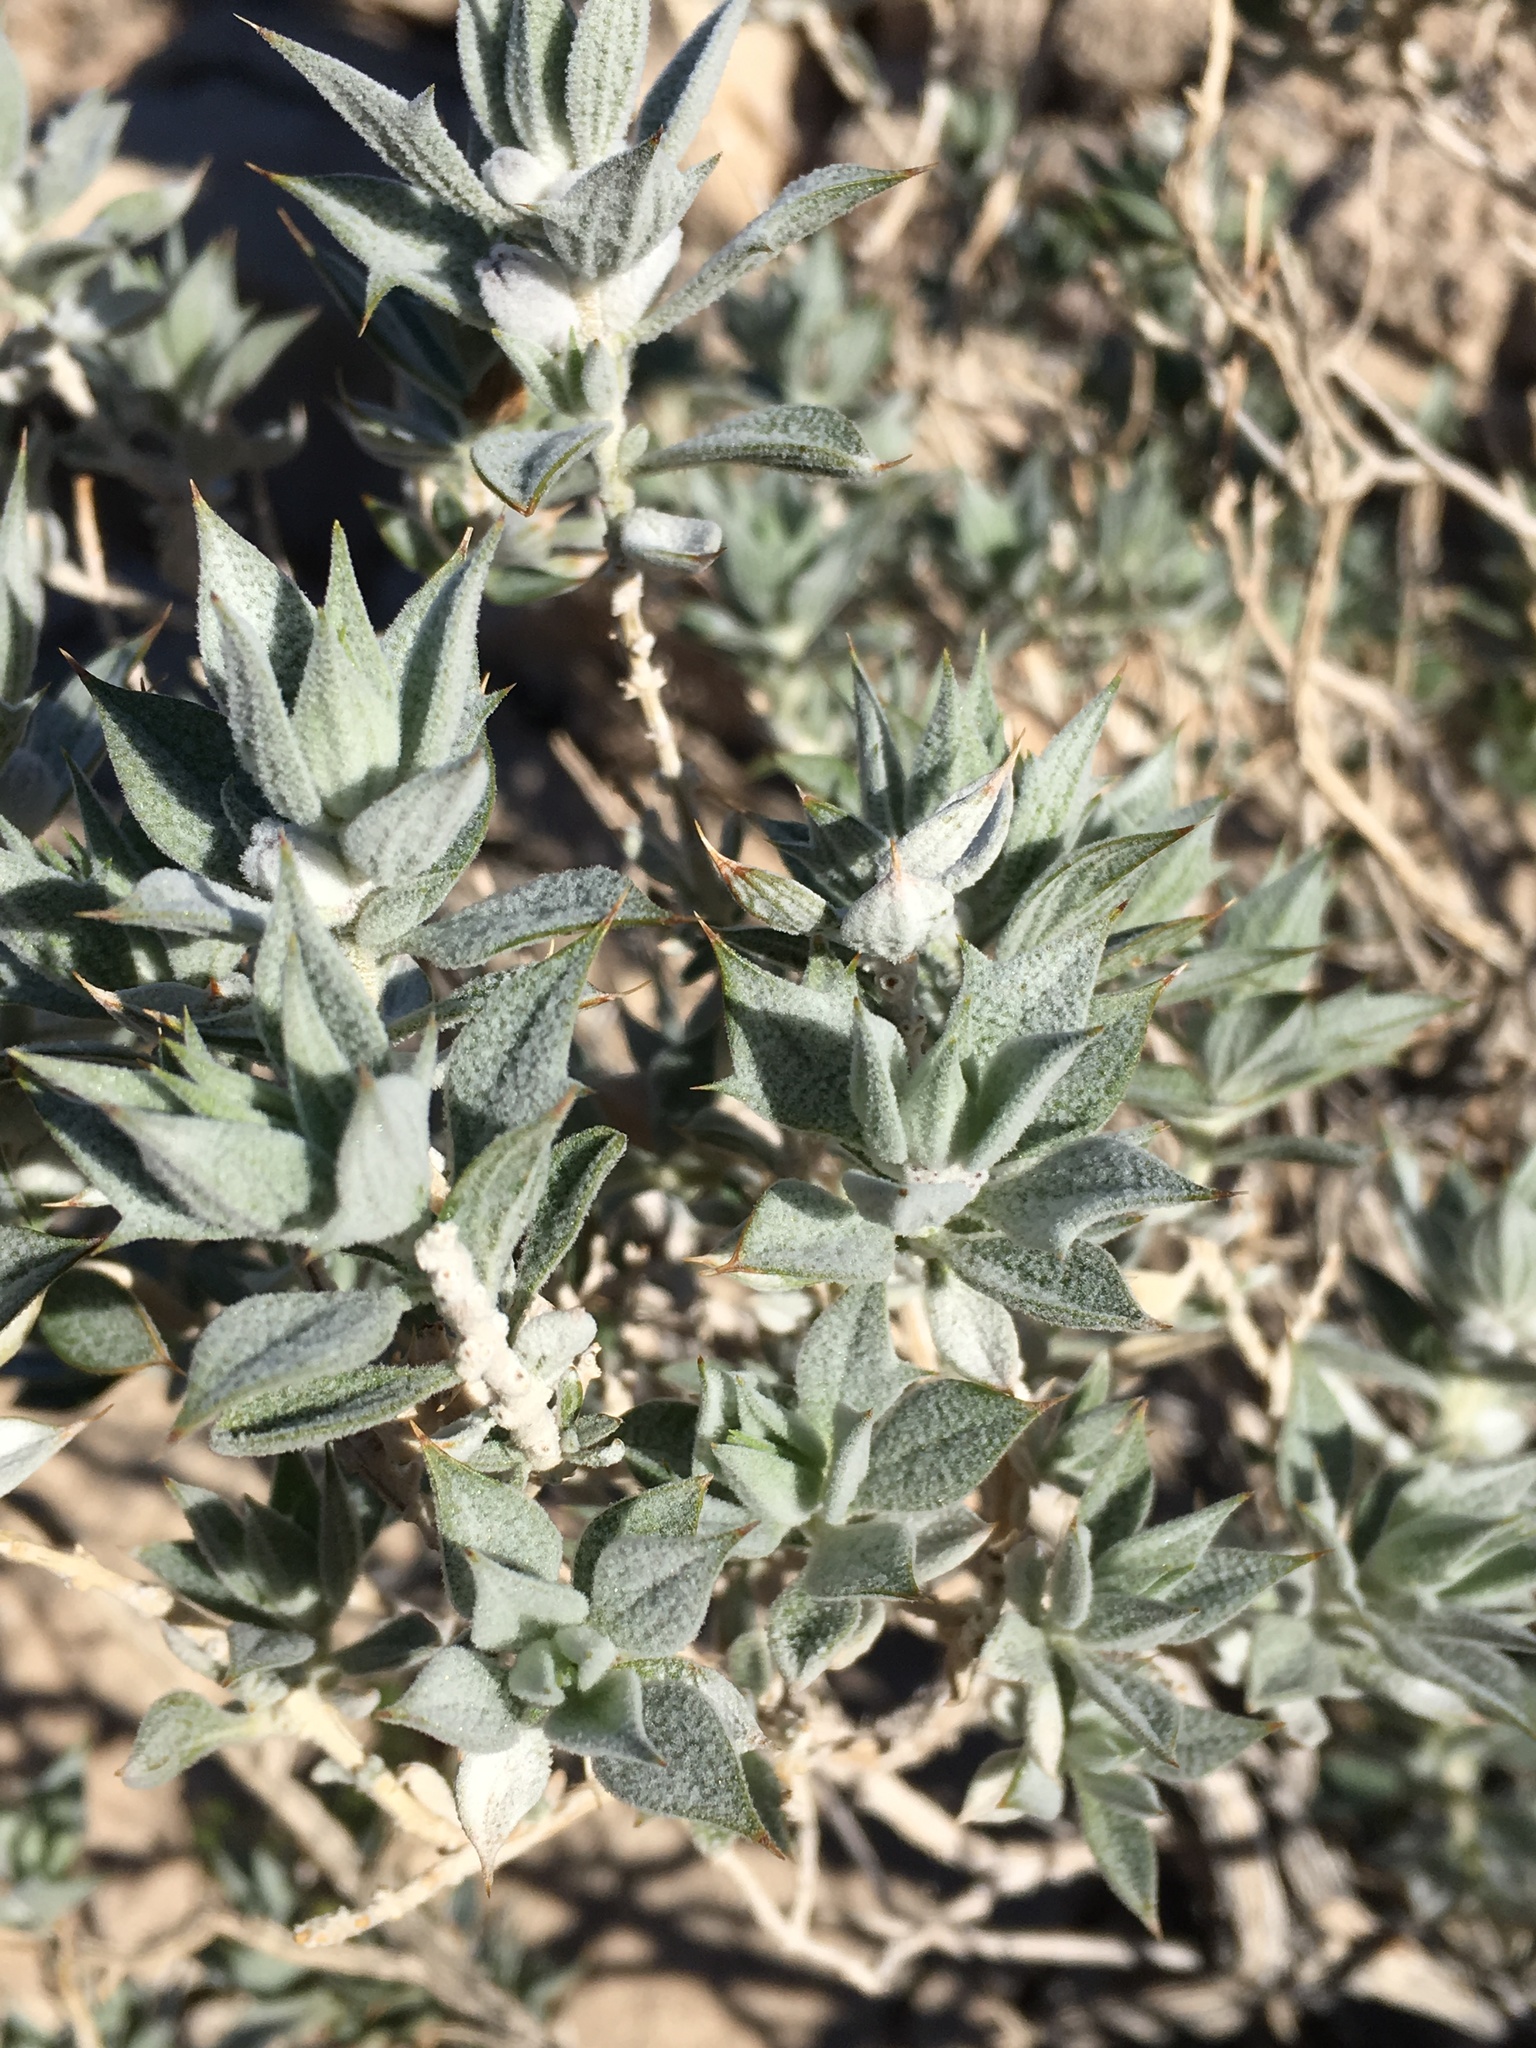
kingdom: Plantae
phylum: Tracheophyta
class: Magnoliopsida
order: Lamiales
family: Lamiaceae
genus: Salvia
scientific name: Salvia funerea
